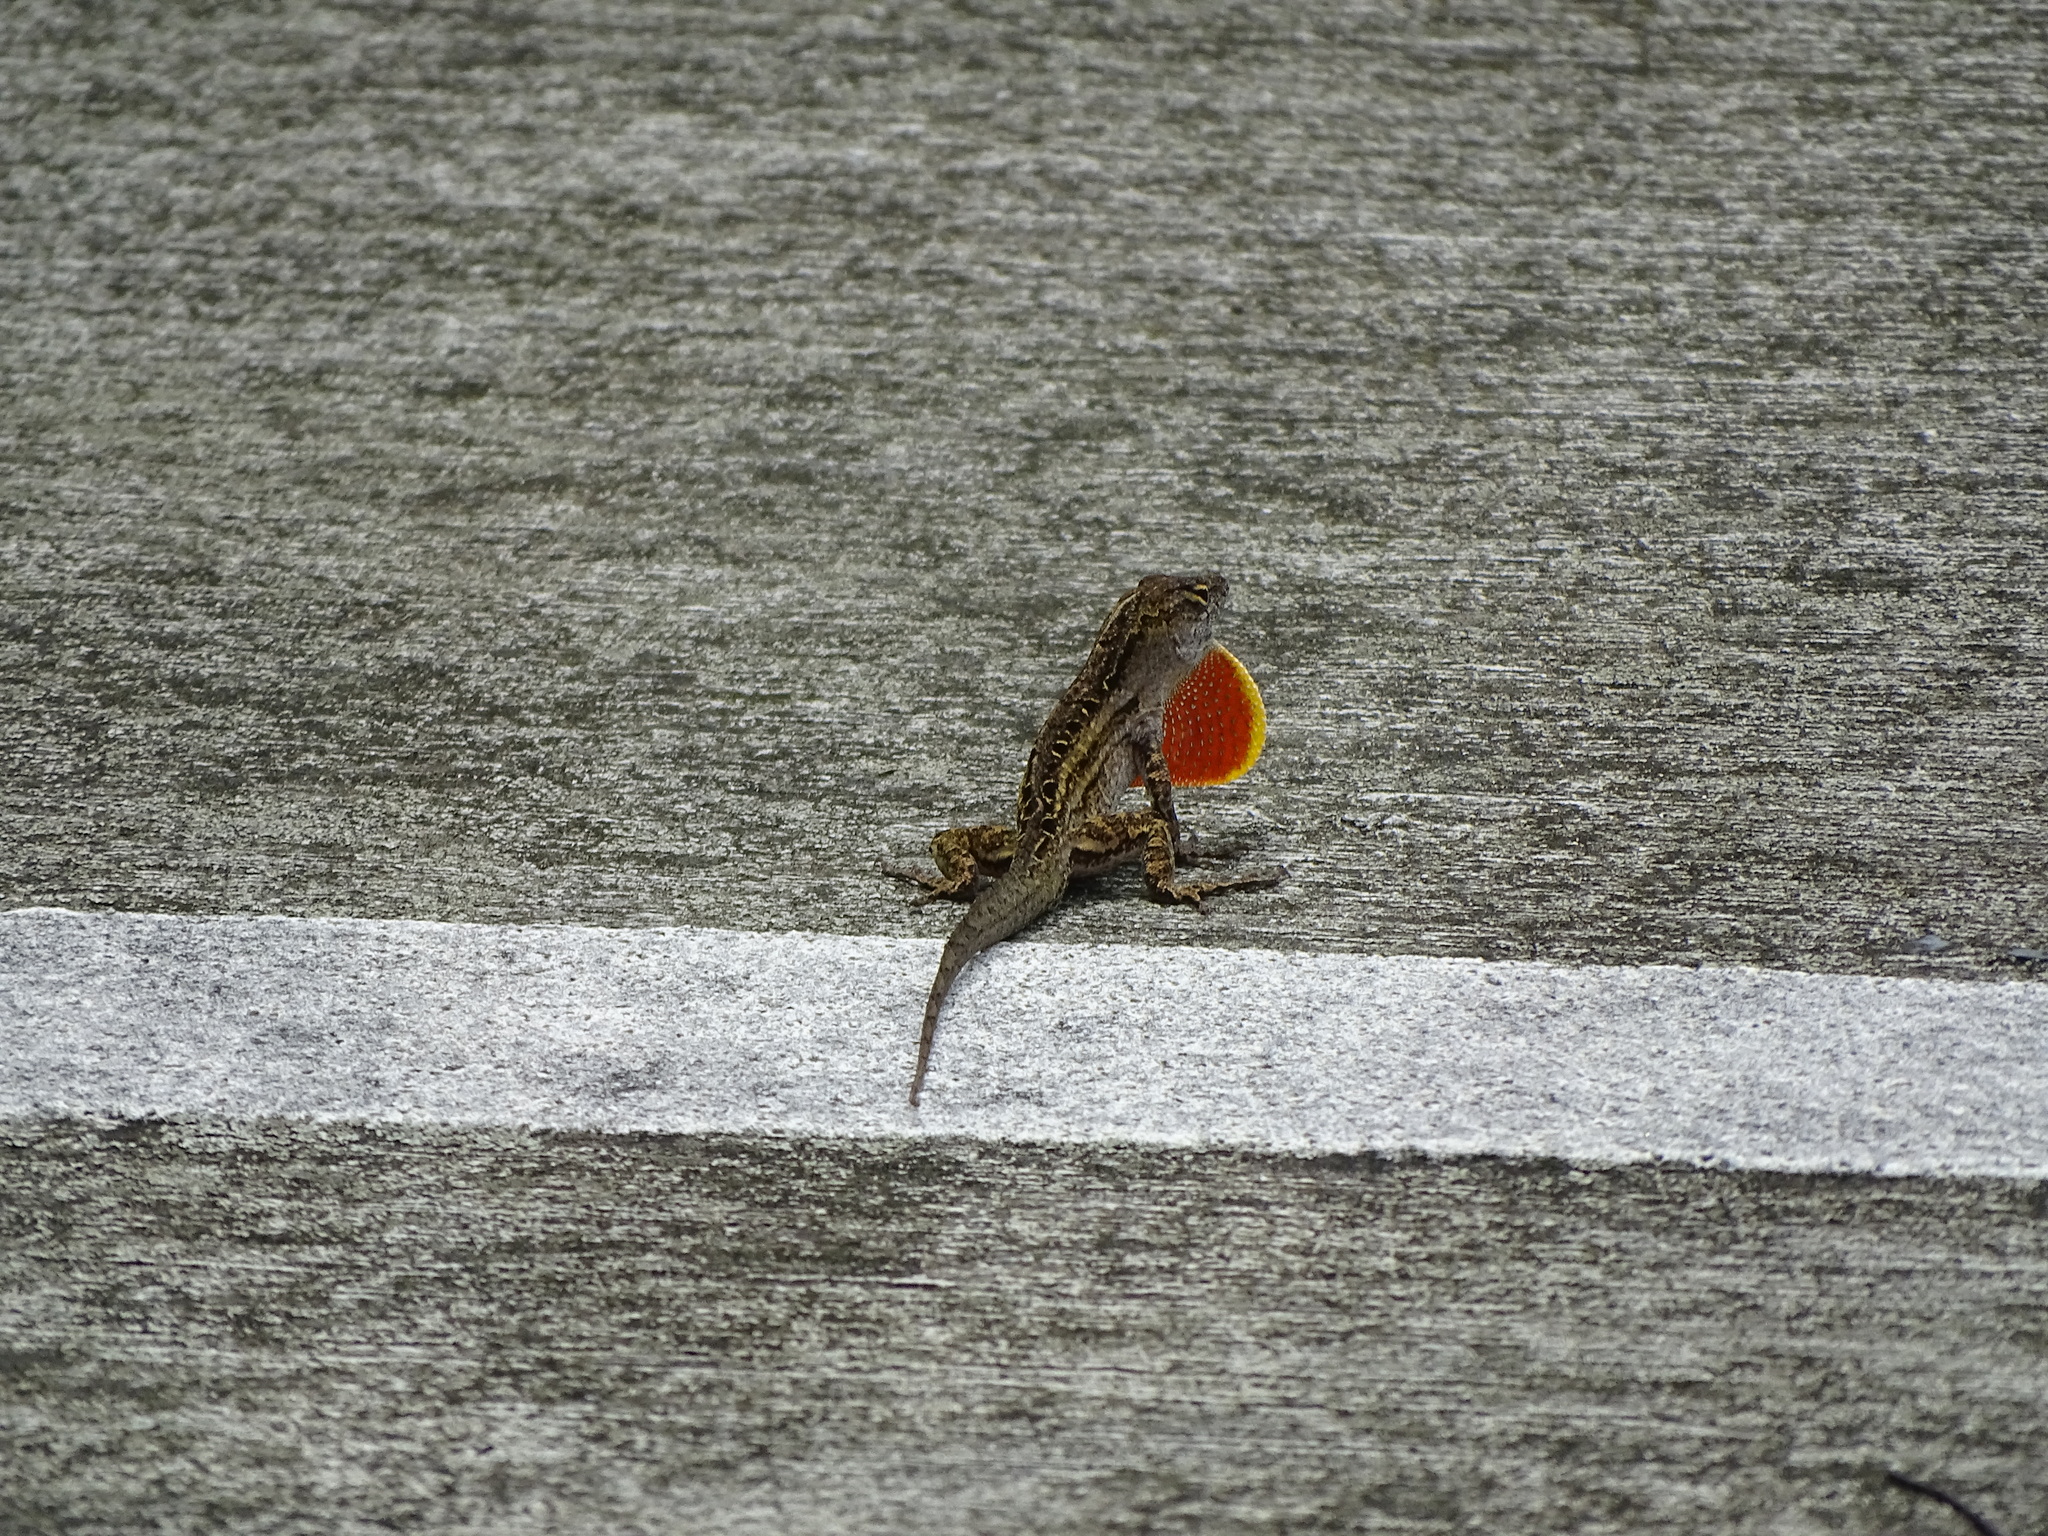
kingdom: Animalia
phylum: Chordata
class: Squamata
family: Dactyloidae
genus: Anolis
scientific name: Anolis sagrei
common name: Brown anole
